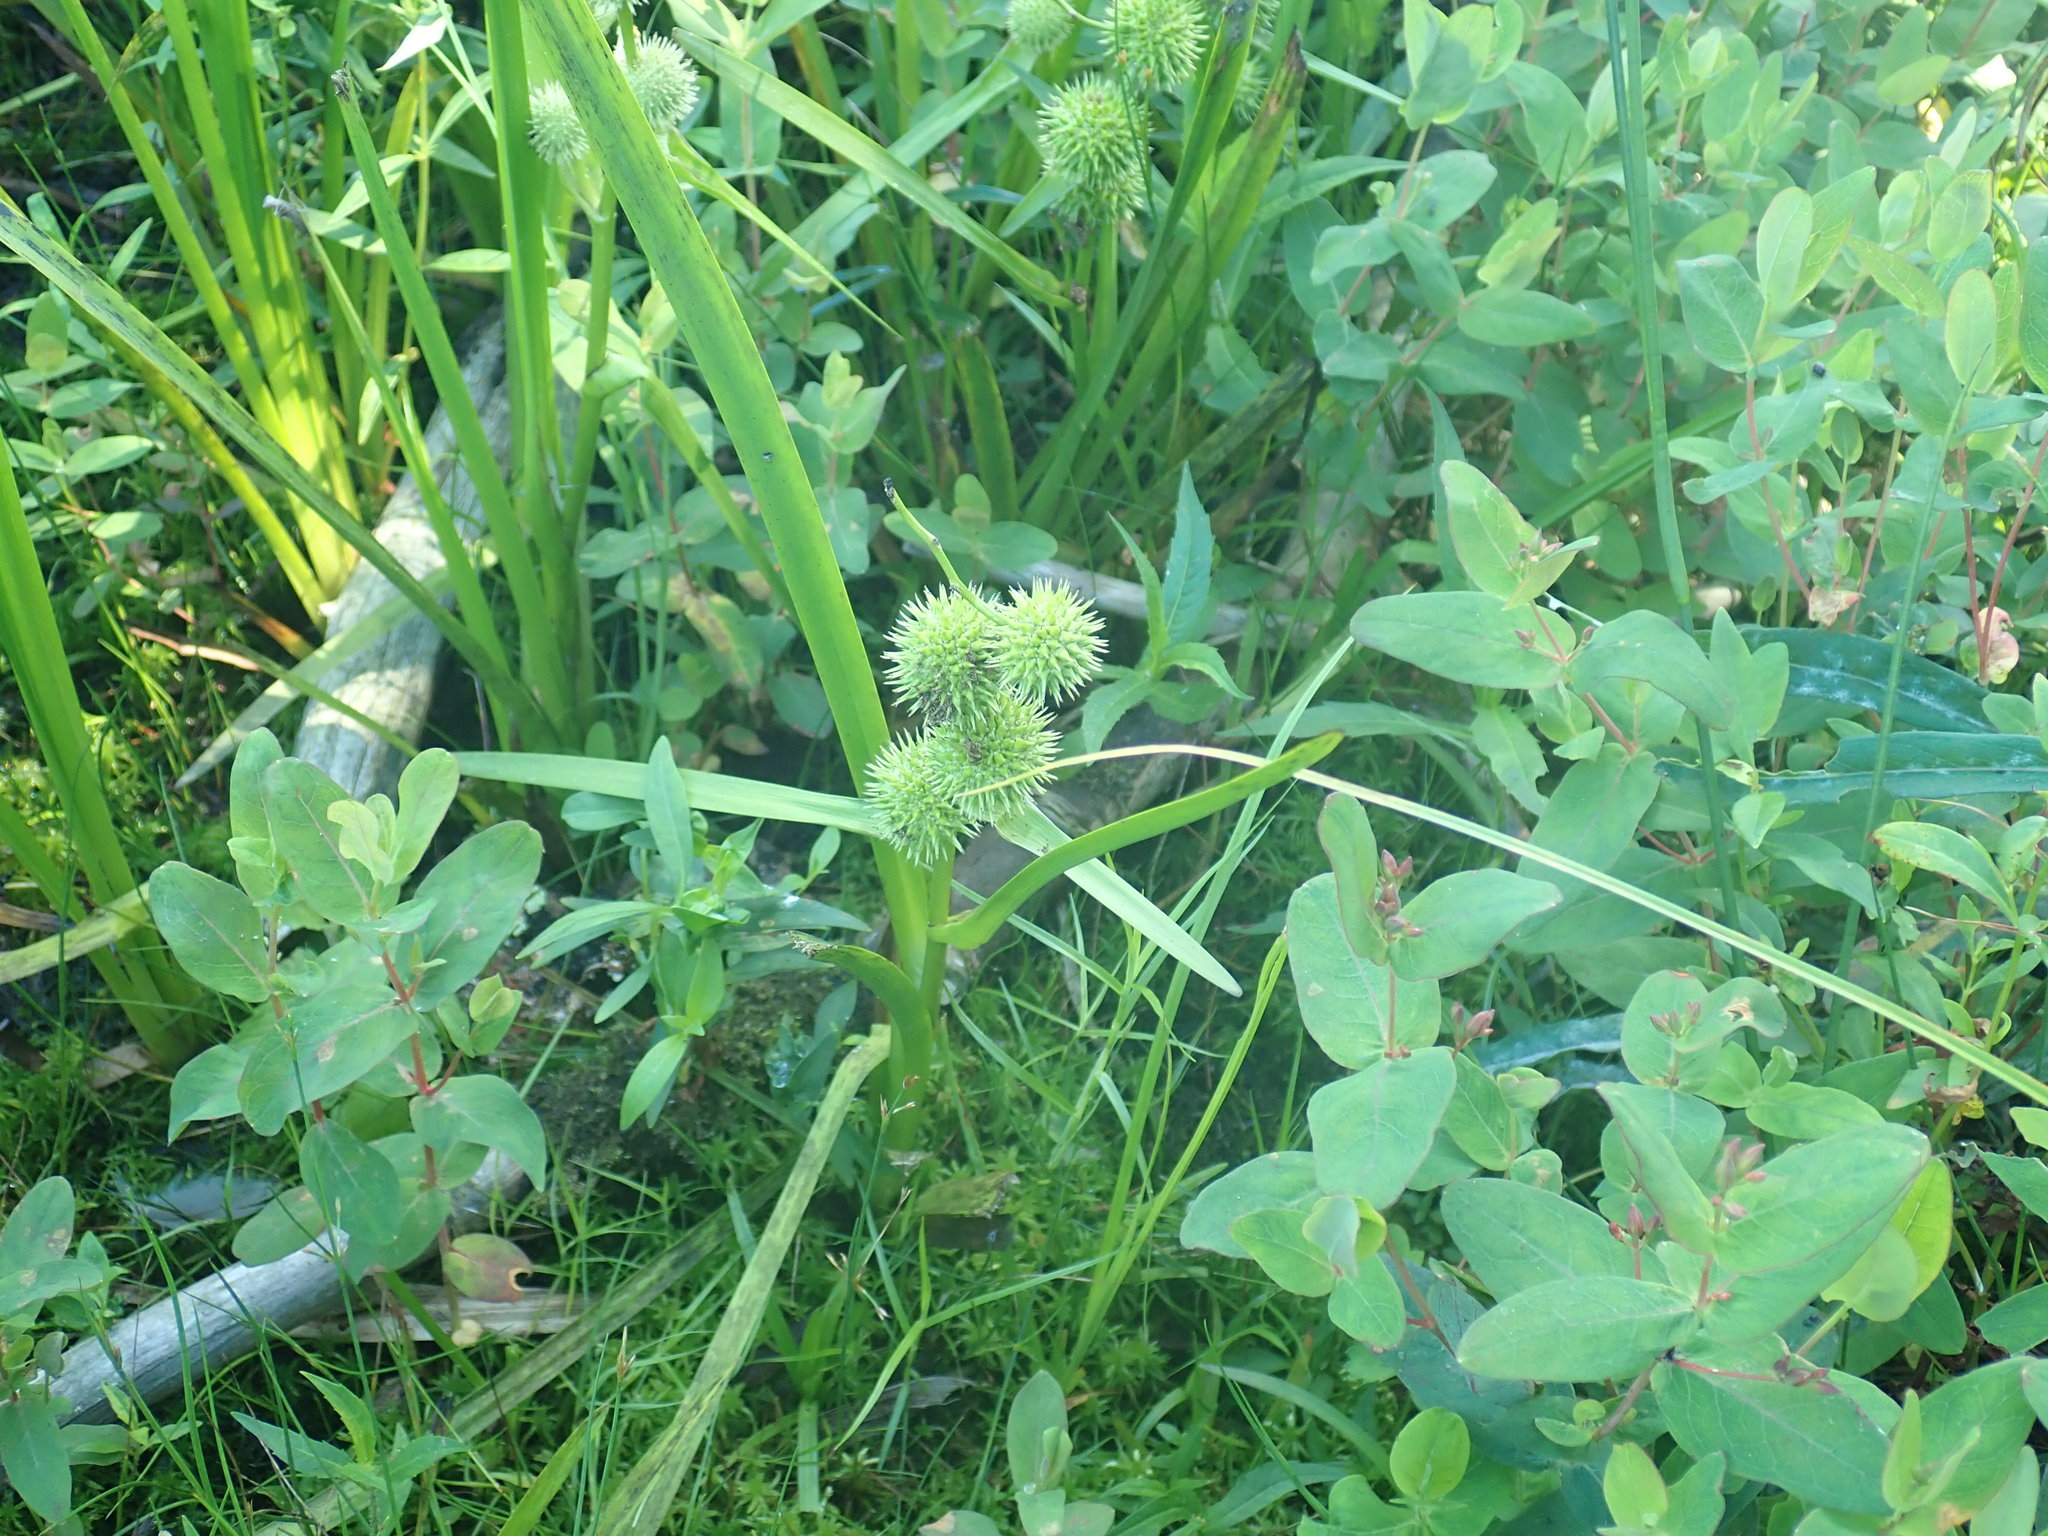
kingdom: Plantae
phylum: Tracheophyta
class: Liliopsida
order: Poales
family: Typhaceae
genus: Sparganium
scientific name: Sparganium
